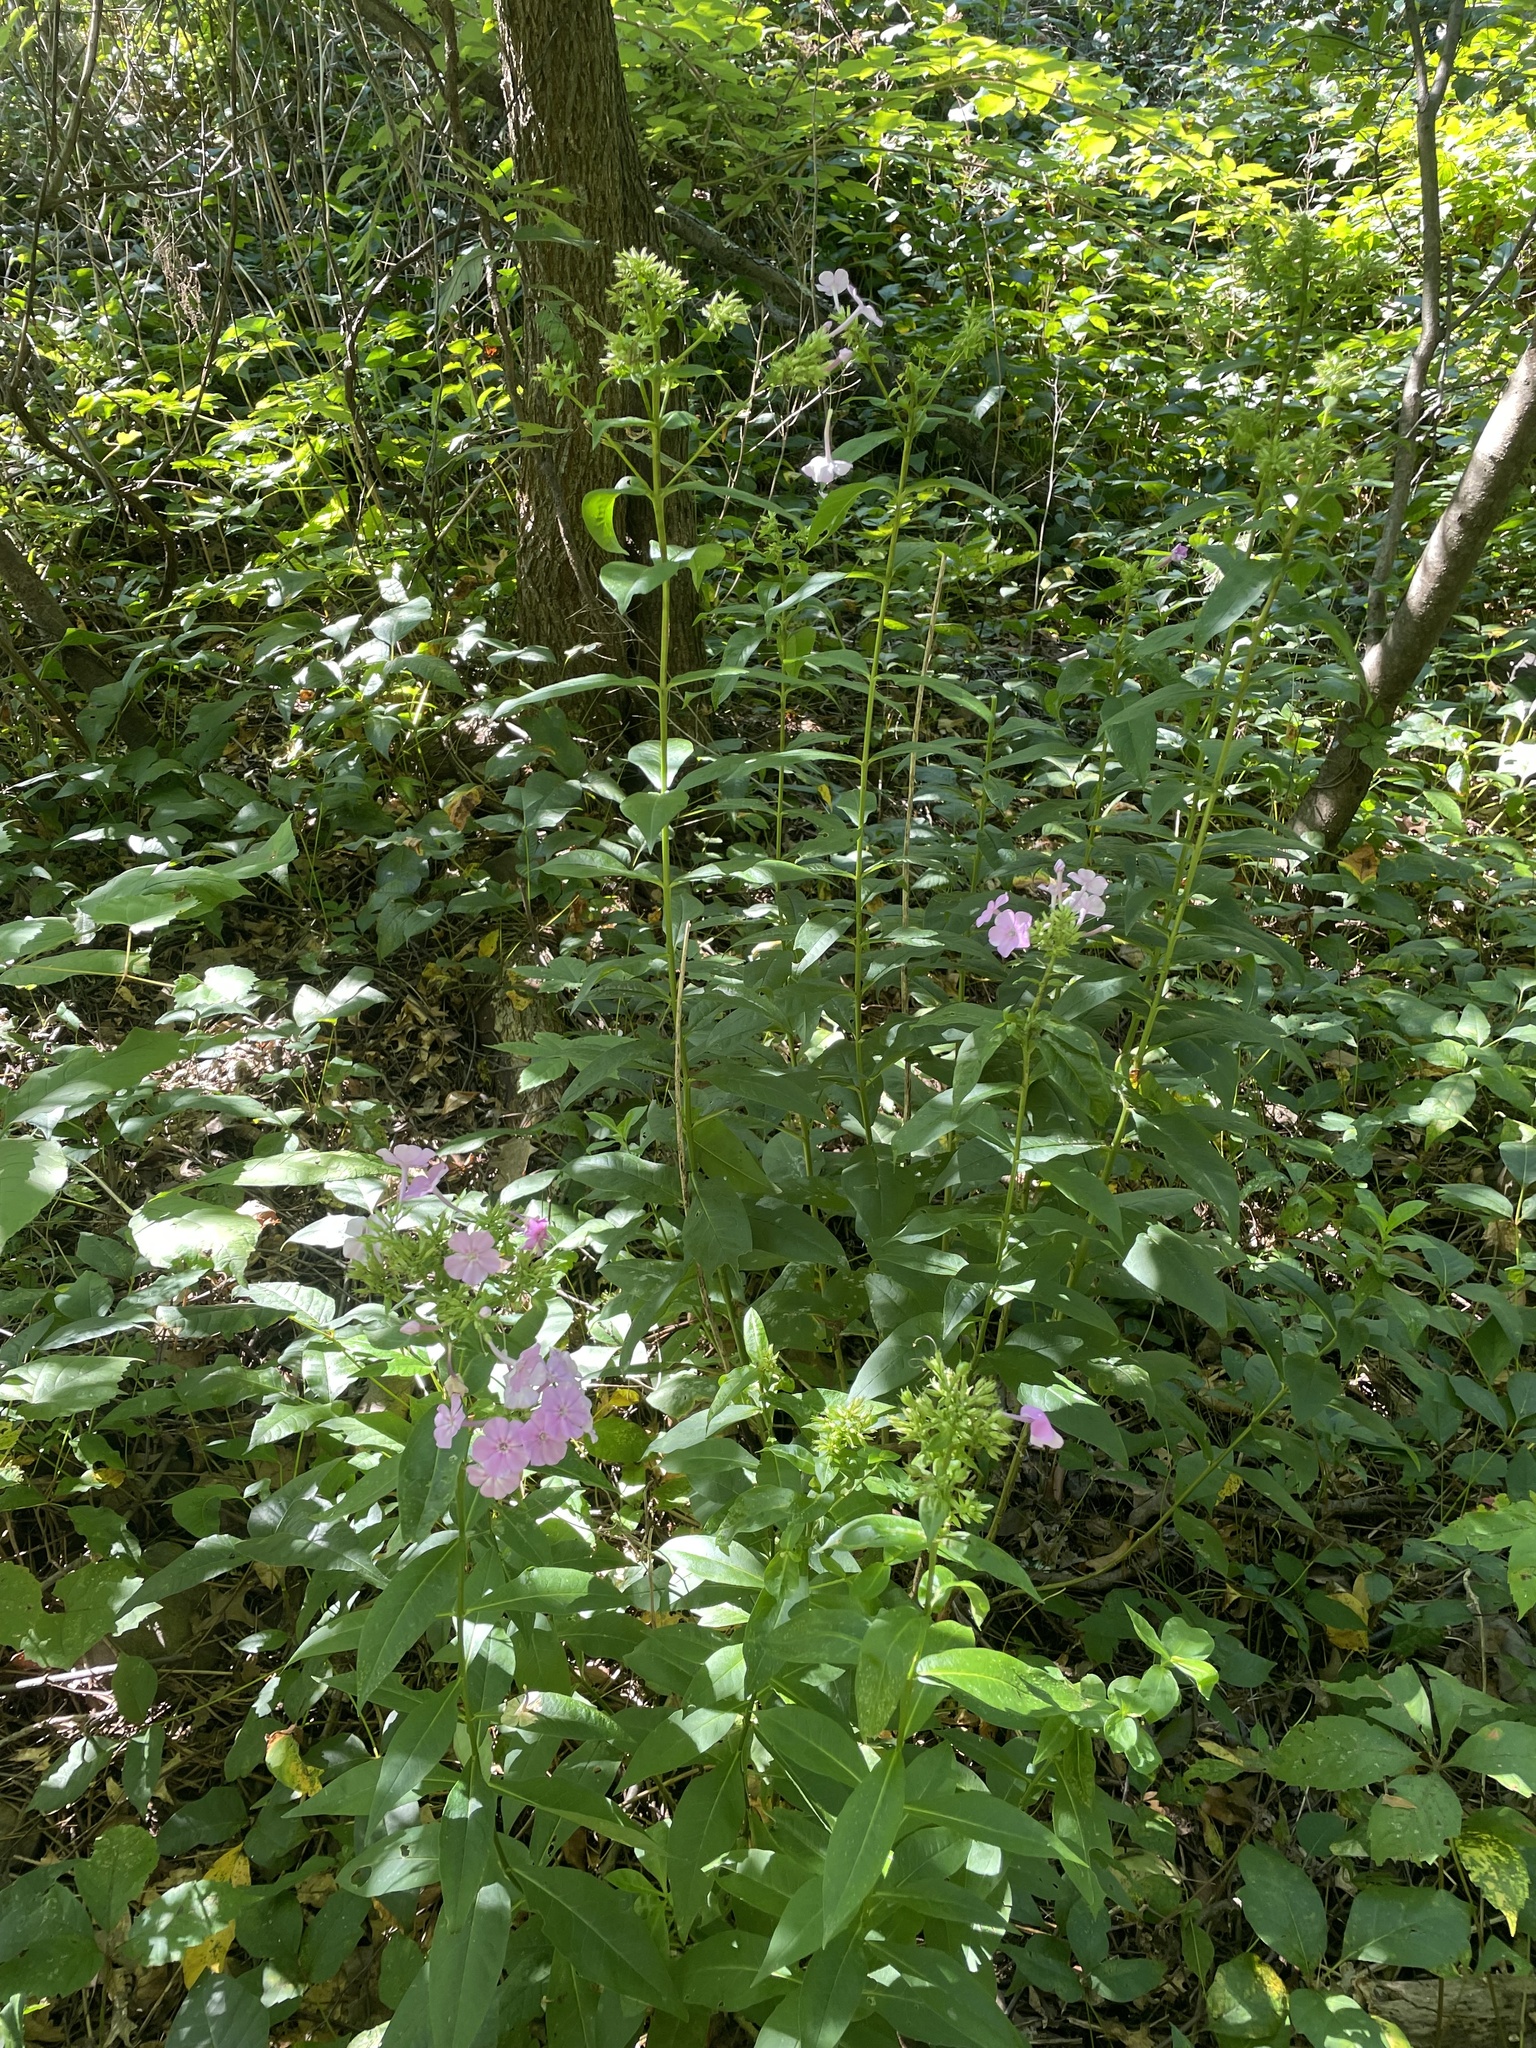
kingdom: Plantae
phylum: Tracheophyta
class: Magnoliopsida
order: Ericales
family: Polemoniaceae
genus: Phlox
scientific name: Phlox paniculata
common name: Fall phlox
